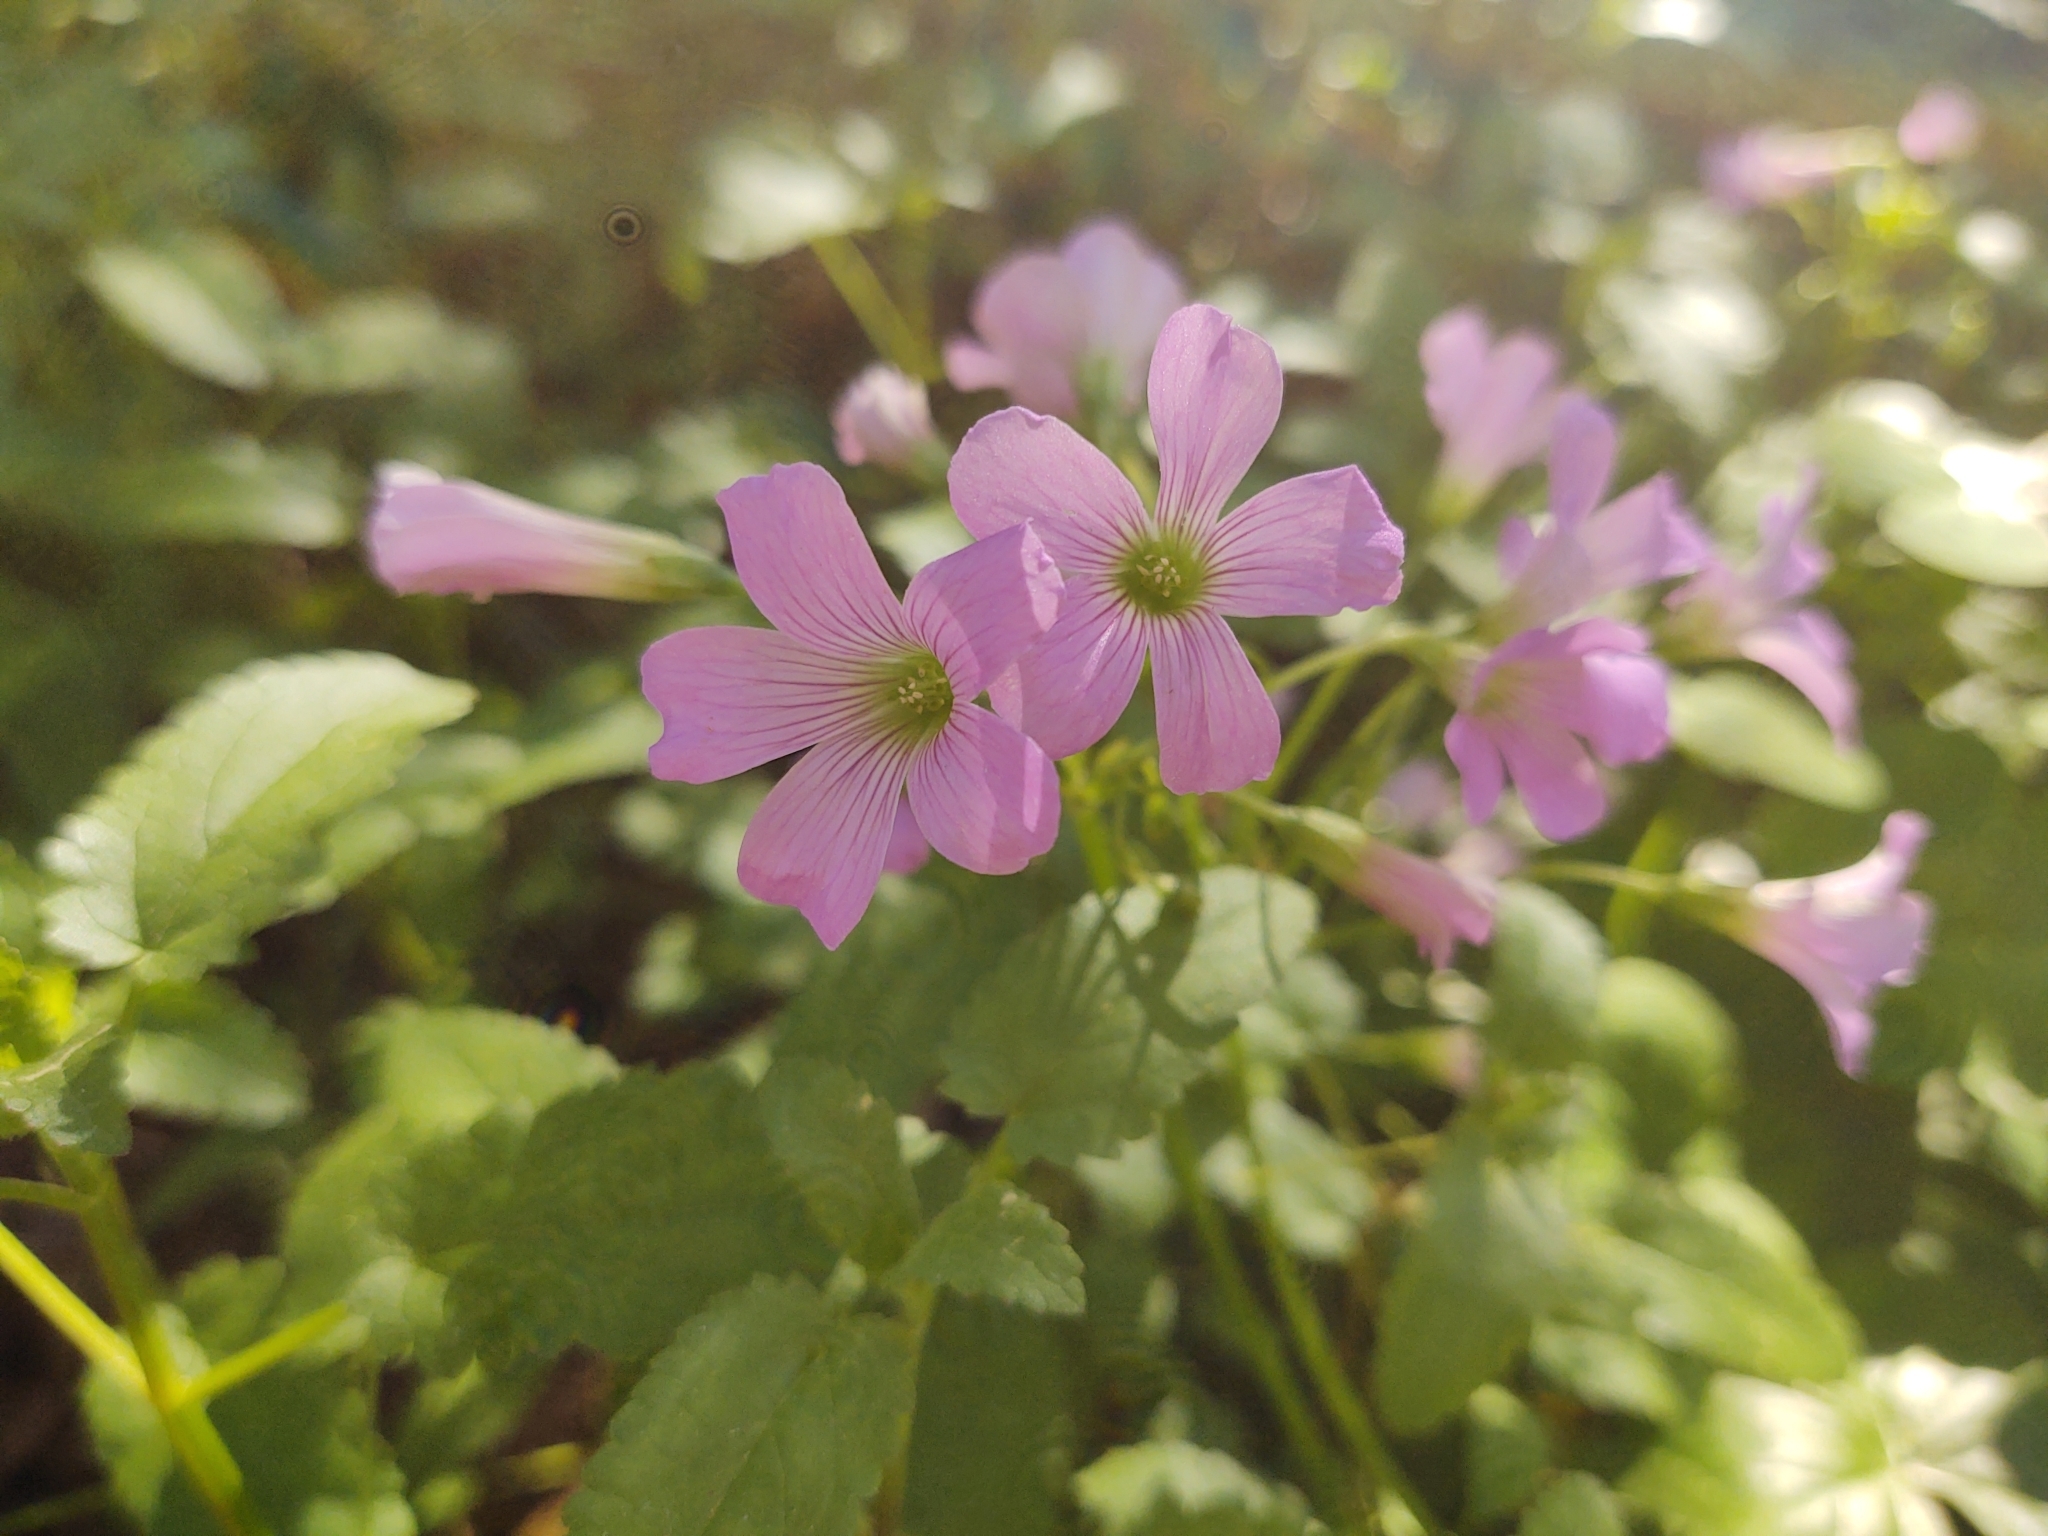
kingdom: Plantae
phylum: Tracheophyta
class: Magnoliopsida
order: Oxalidales
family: Oxalidaceae
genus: Oxalis
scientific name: Oxalis debilis
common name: Large-flowered pink-sorrel
